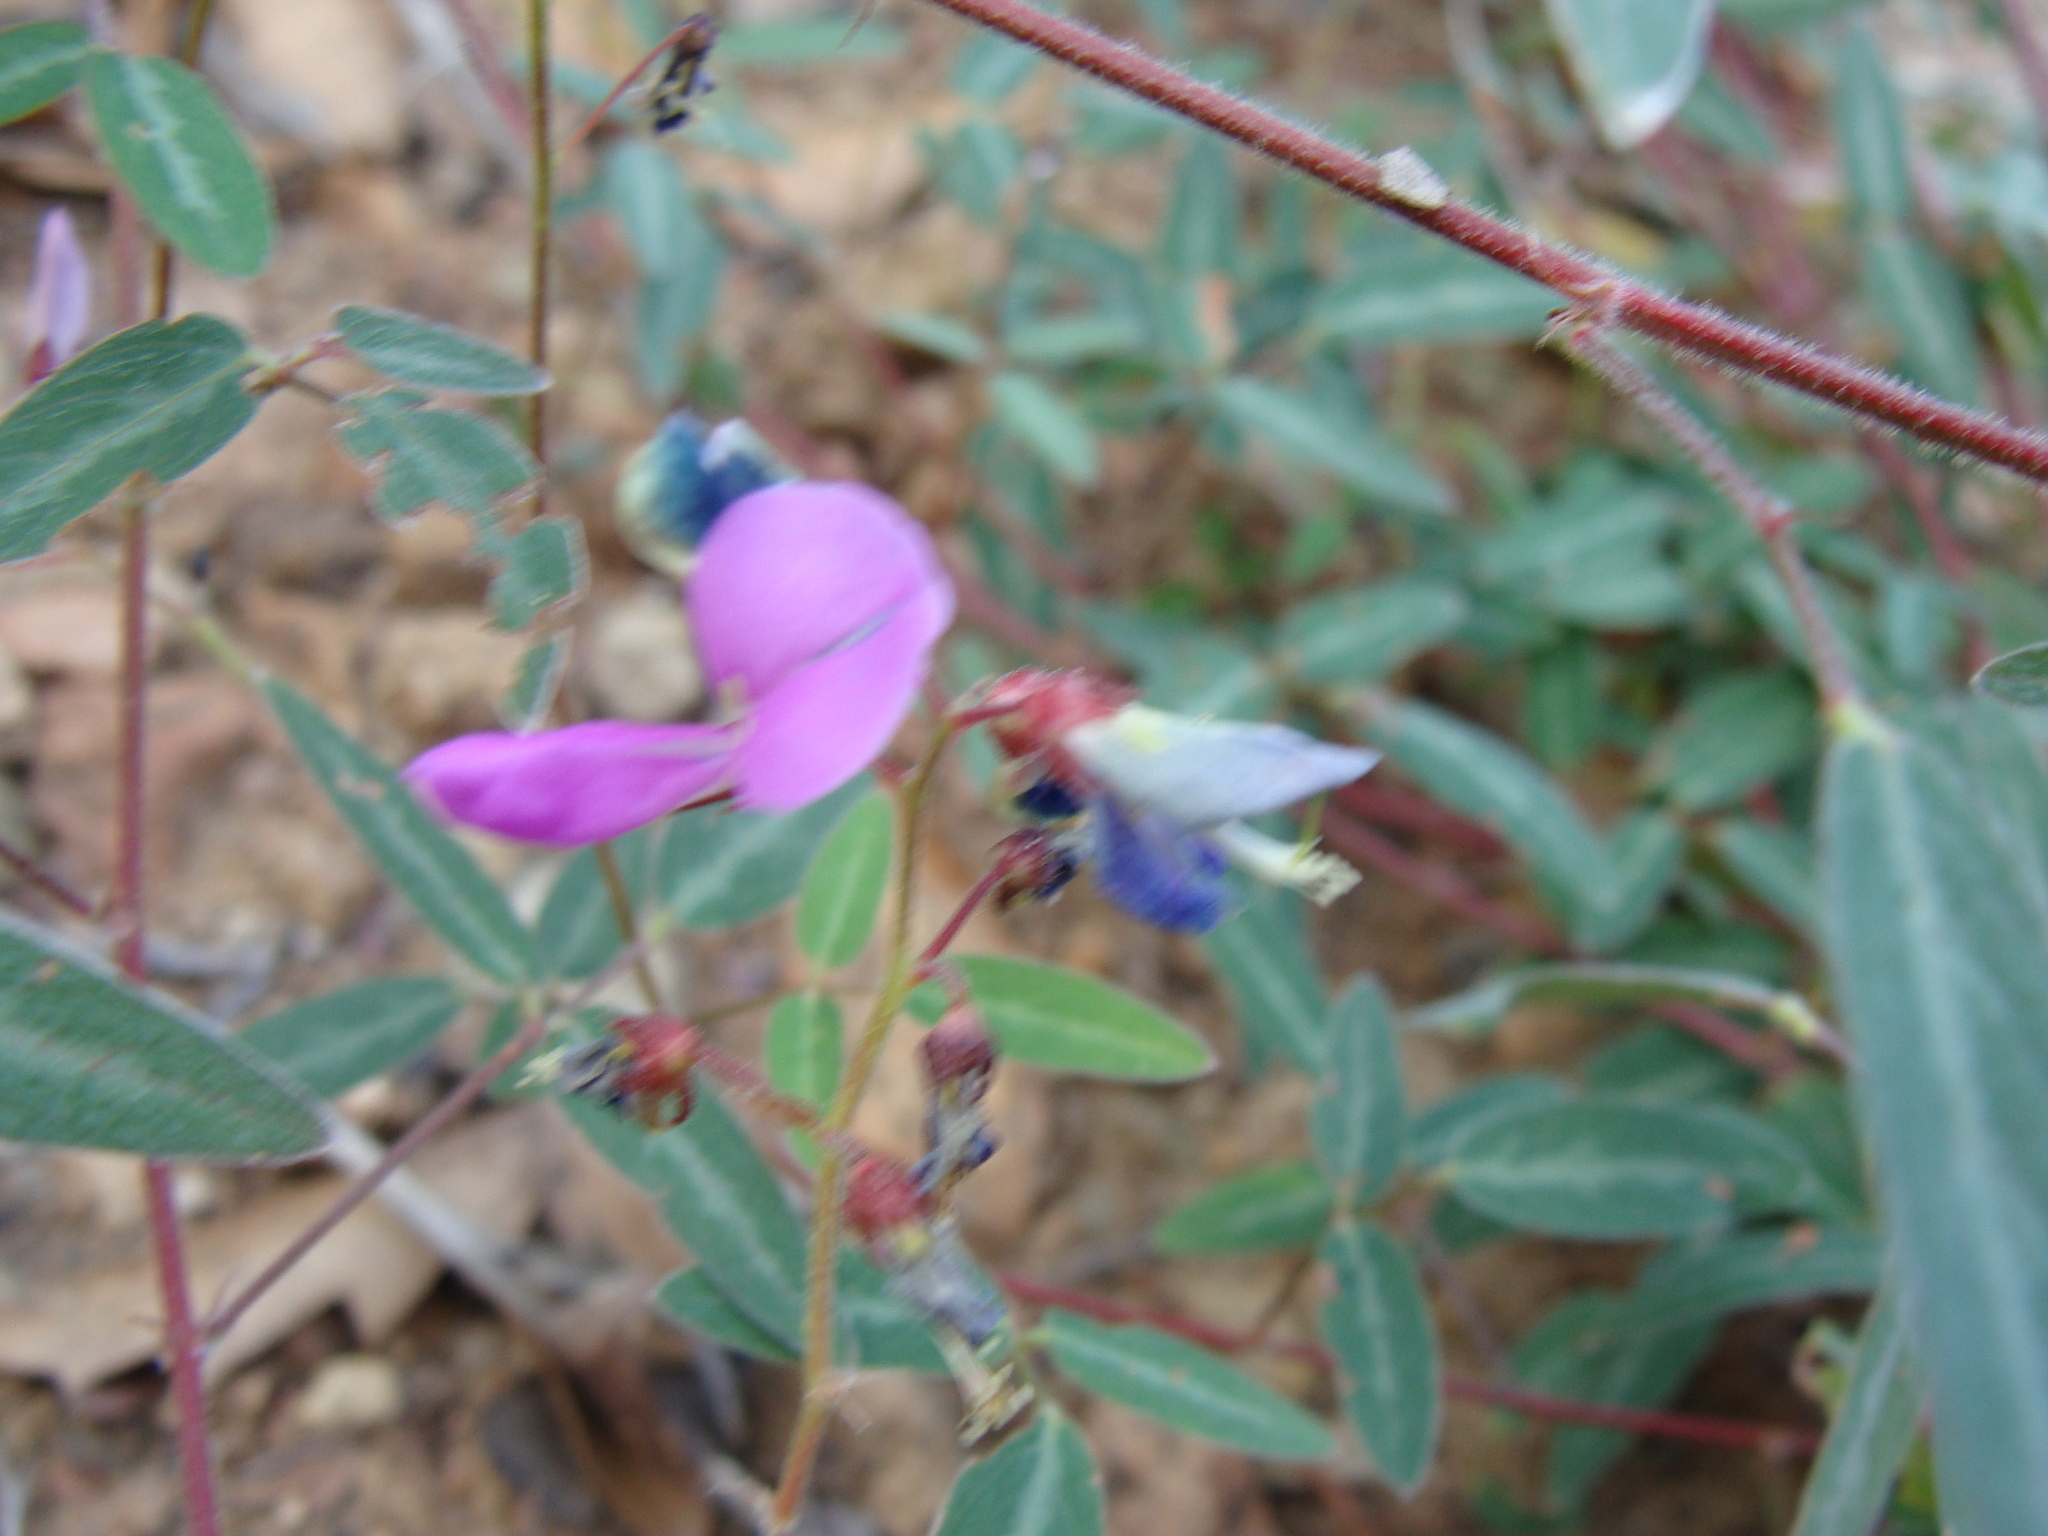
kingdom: Plantae
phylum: Tracheophyta
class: Magnoliopsida
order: Fabales
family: Fabaceae
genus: Desmodium
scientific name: Desmodium batocaulon
